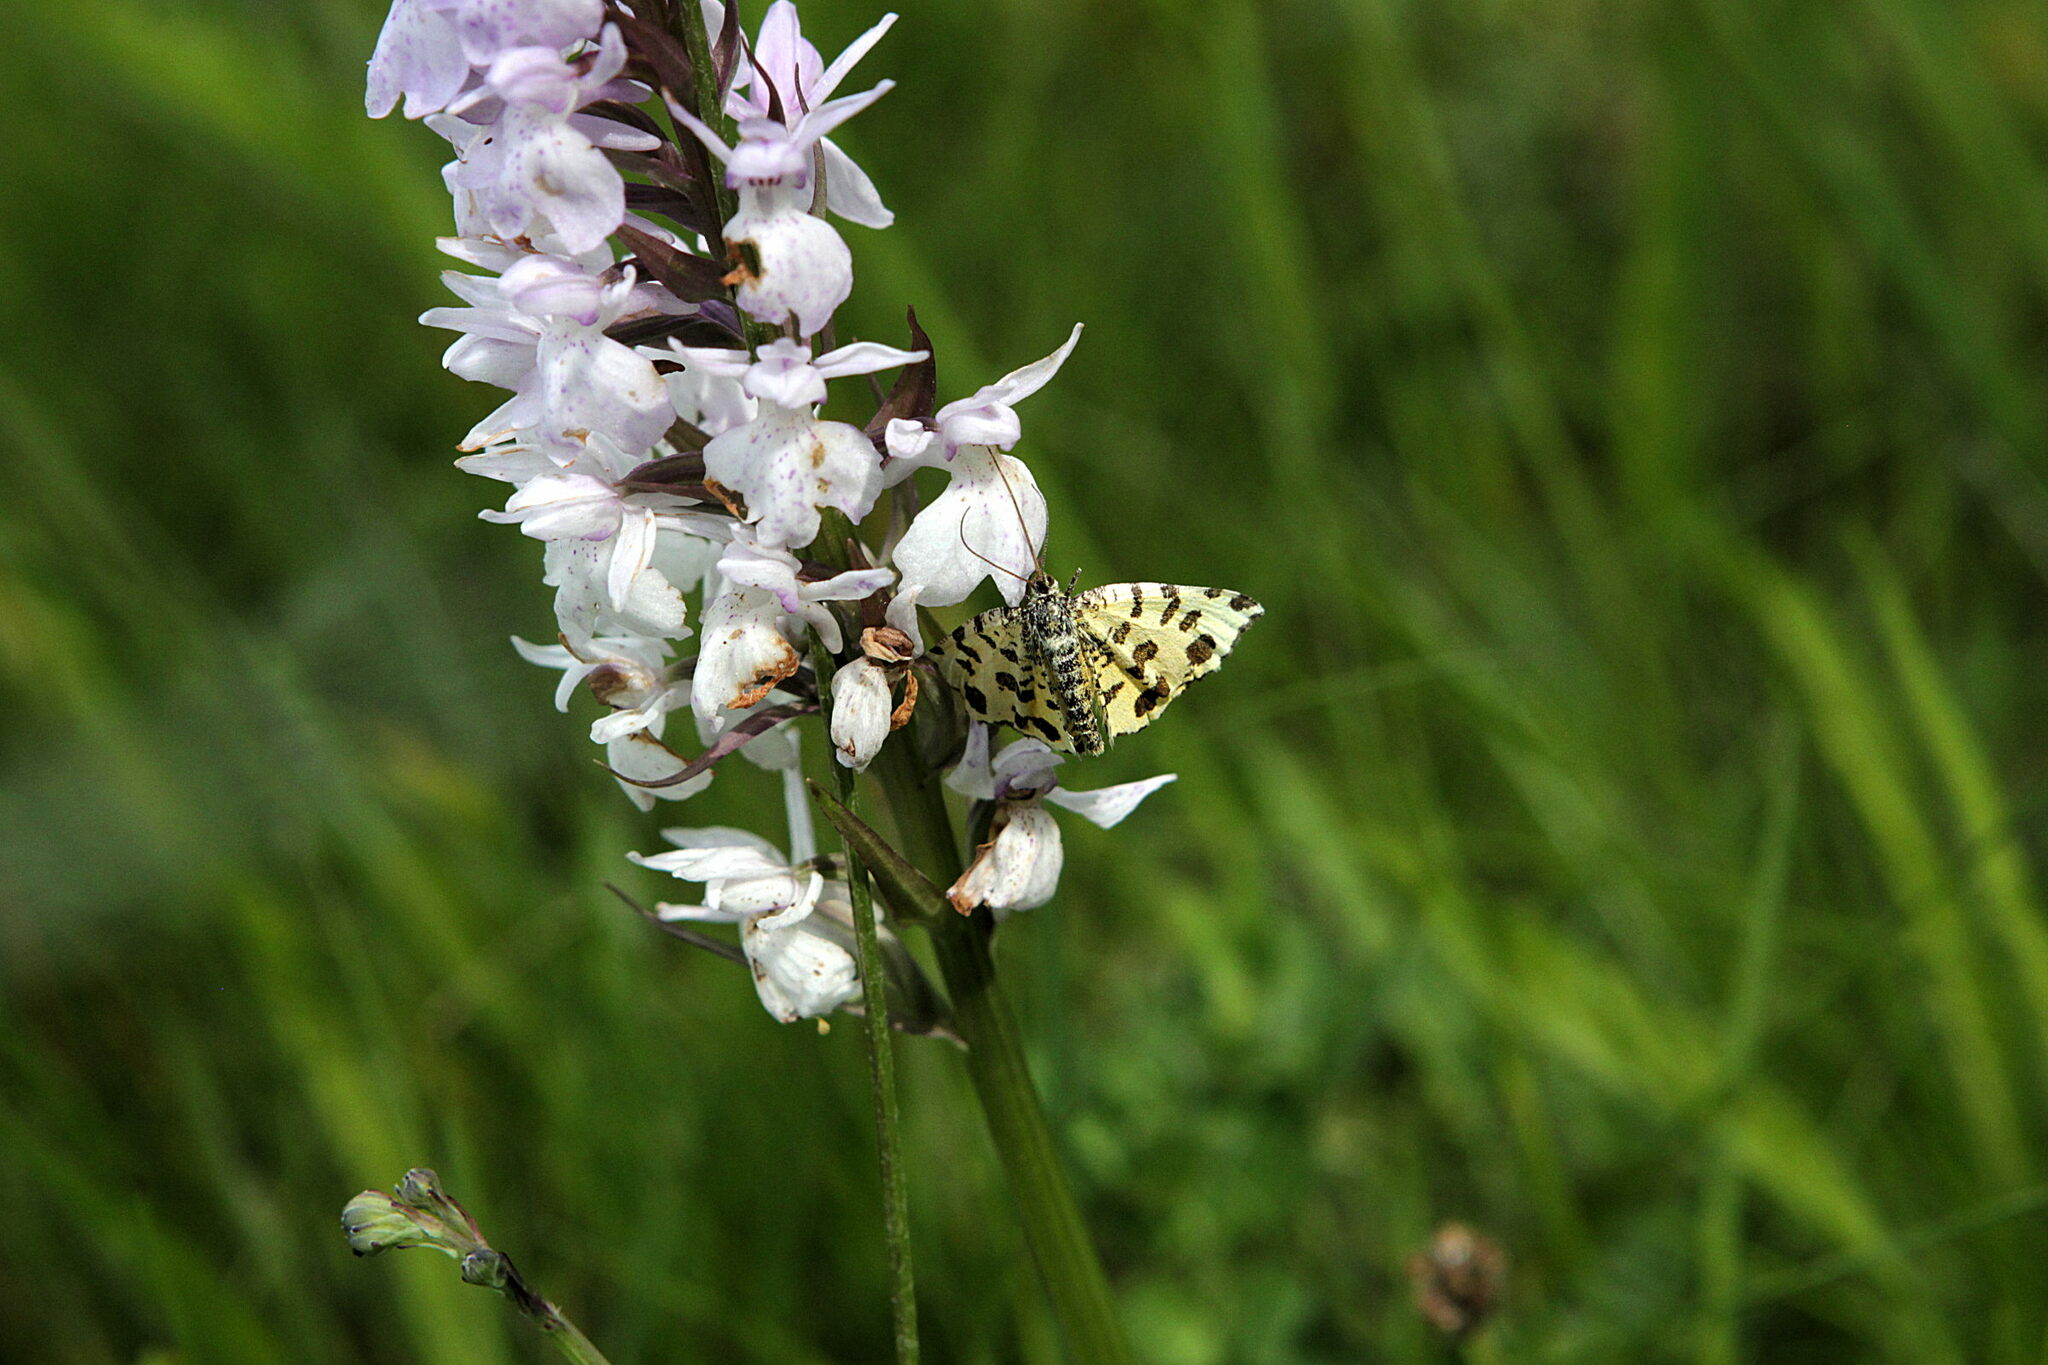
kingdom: Animalia
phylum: Arthropoda
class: Insecta
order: Lepidoptera
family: Geometridae
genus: Pseudopanthera
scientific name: Pseudopanthera macularia
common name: Speckled yellow
